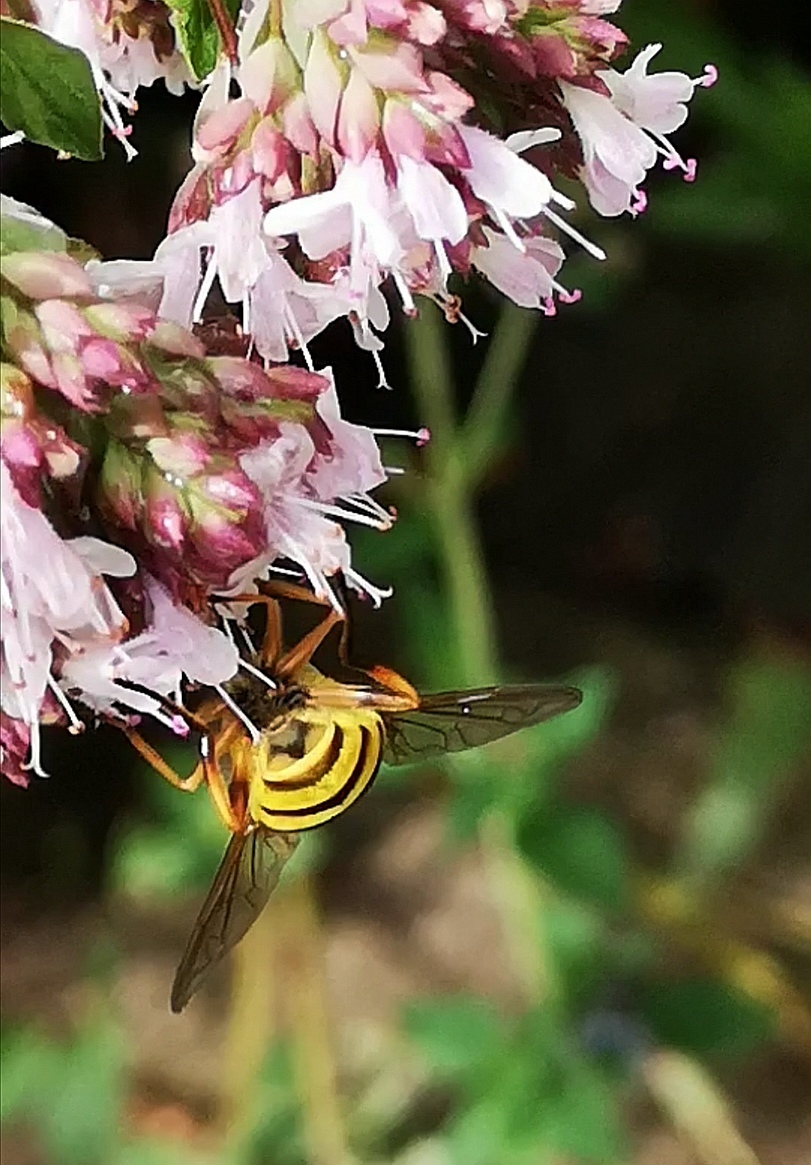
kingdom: Animalia
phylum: Arthropoda
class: Insecta
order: Diptera
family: Syrphidae
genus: Myathropa
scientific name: Myathropa florea
